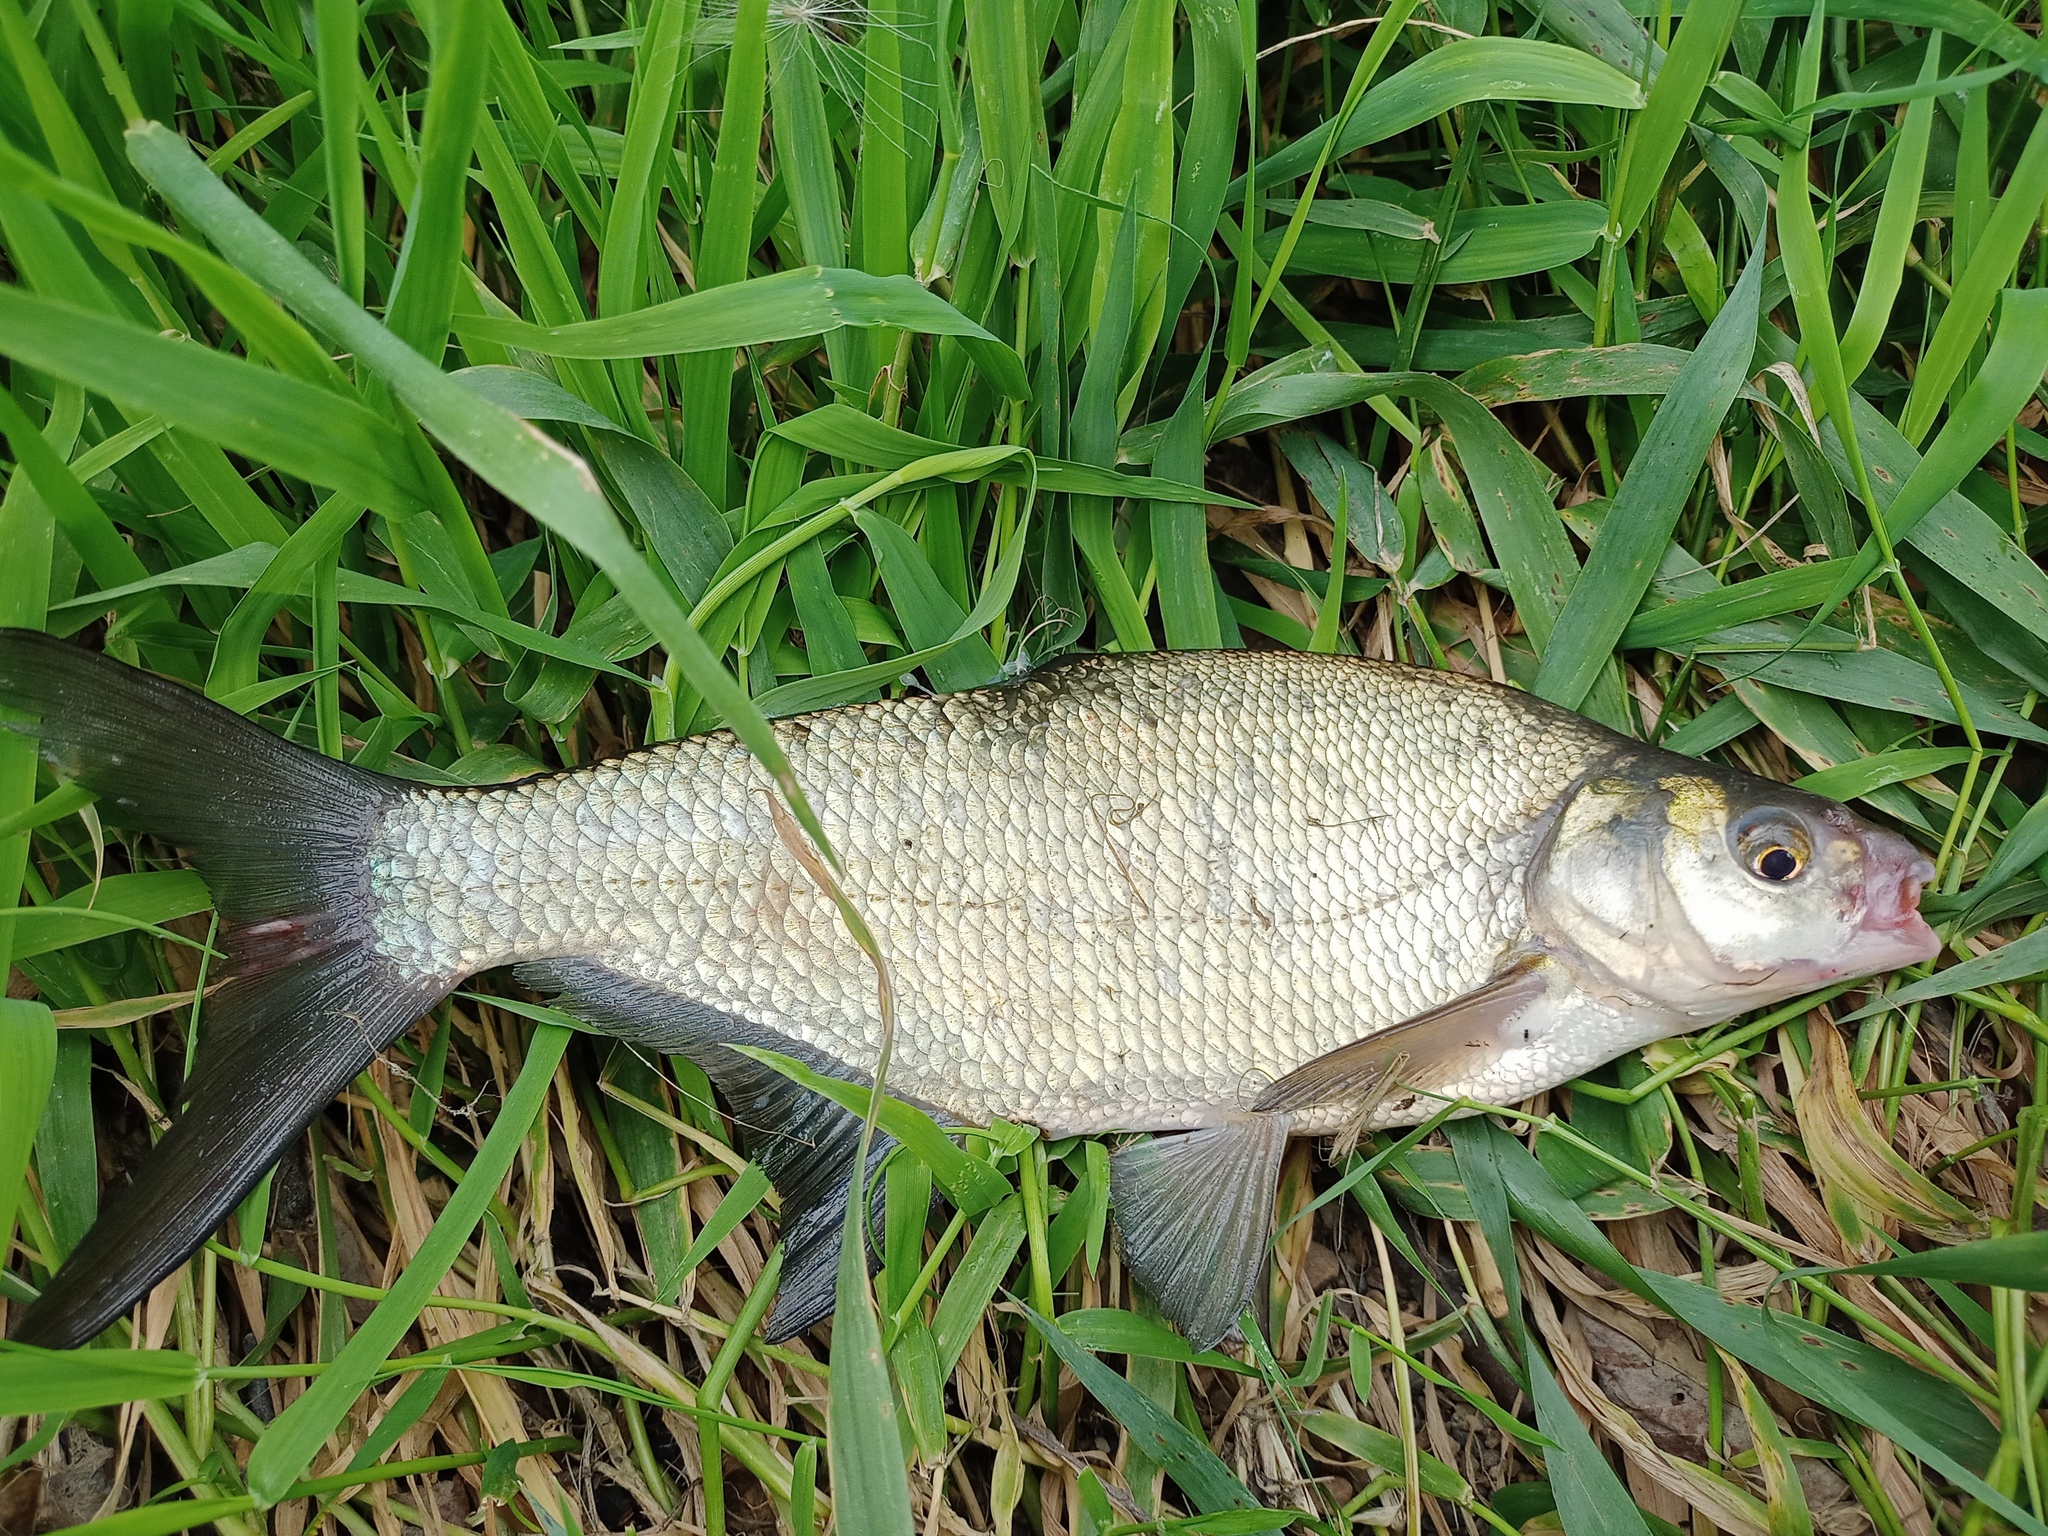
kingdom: Animalia
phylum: Chordata
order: Cypriniformes
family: Cyprinidae
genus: Abramis
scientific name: Abramis brama
